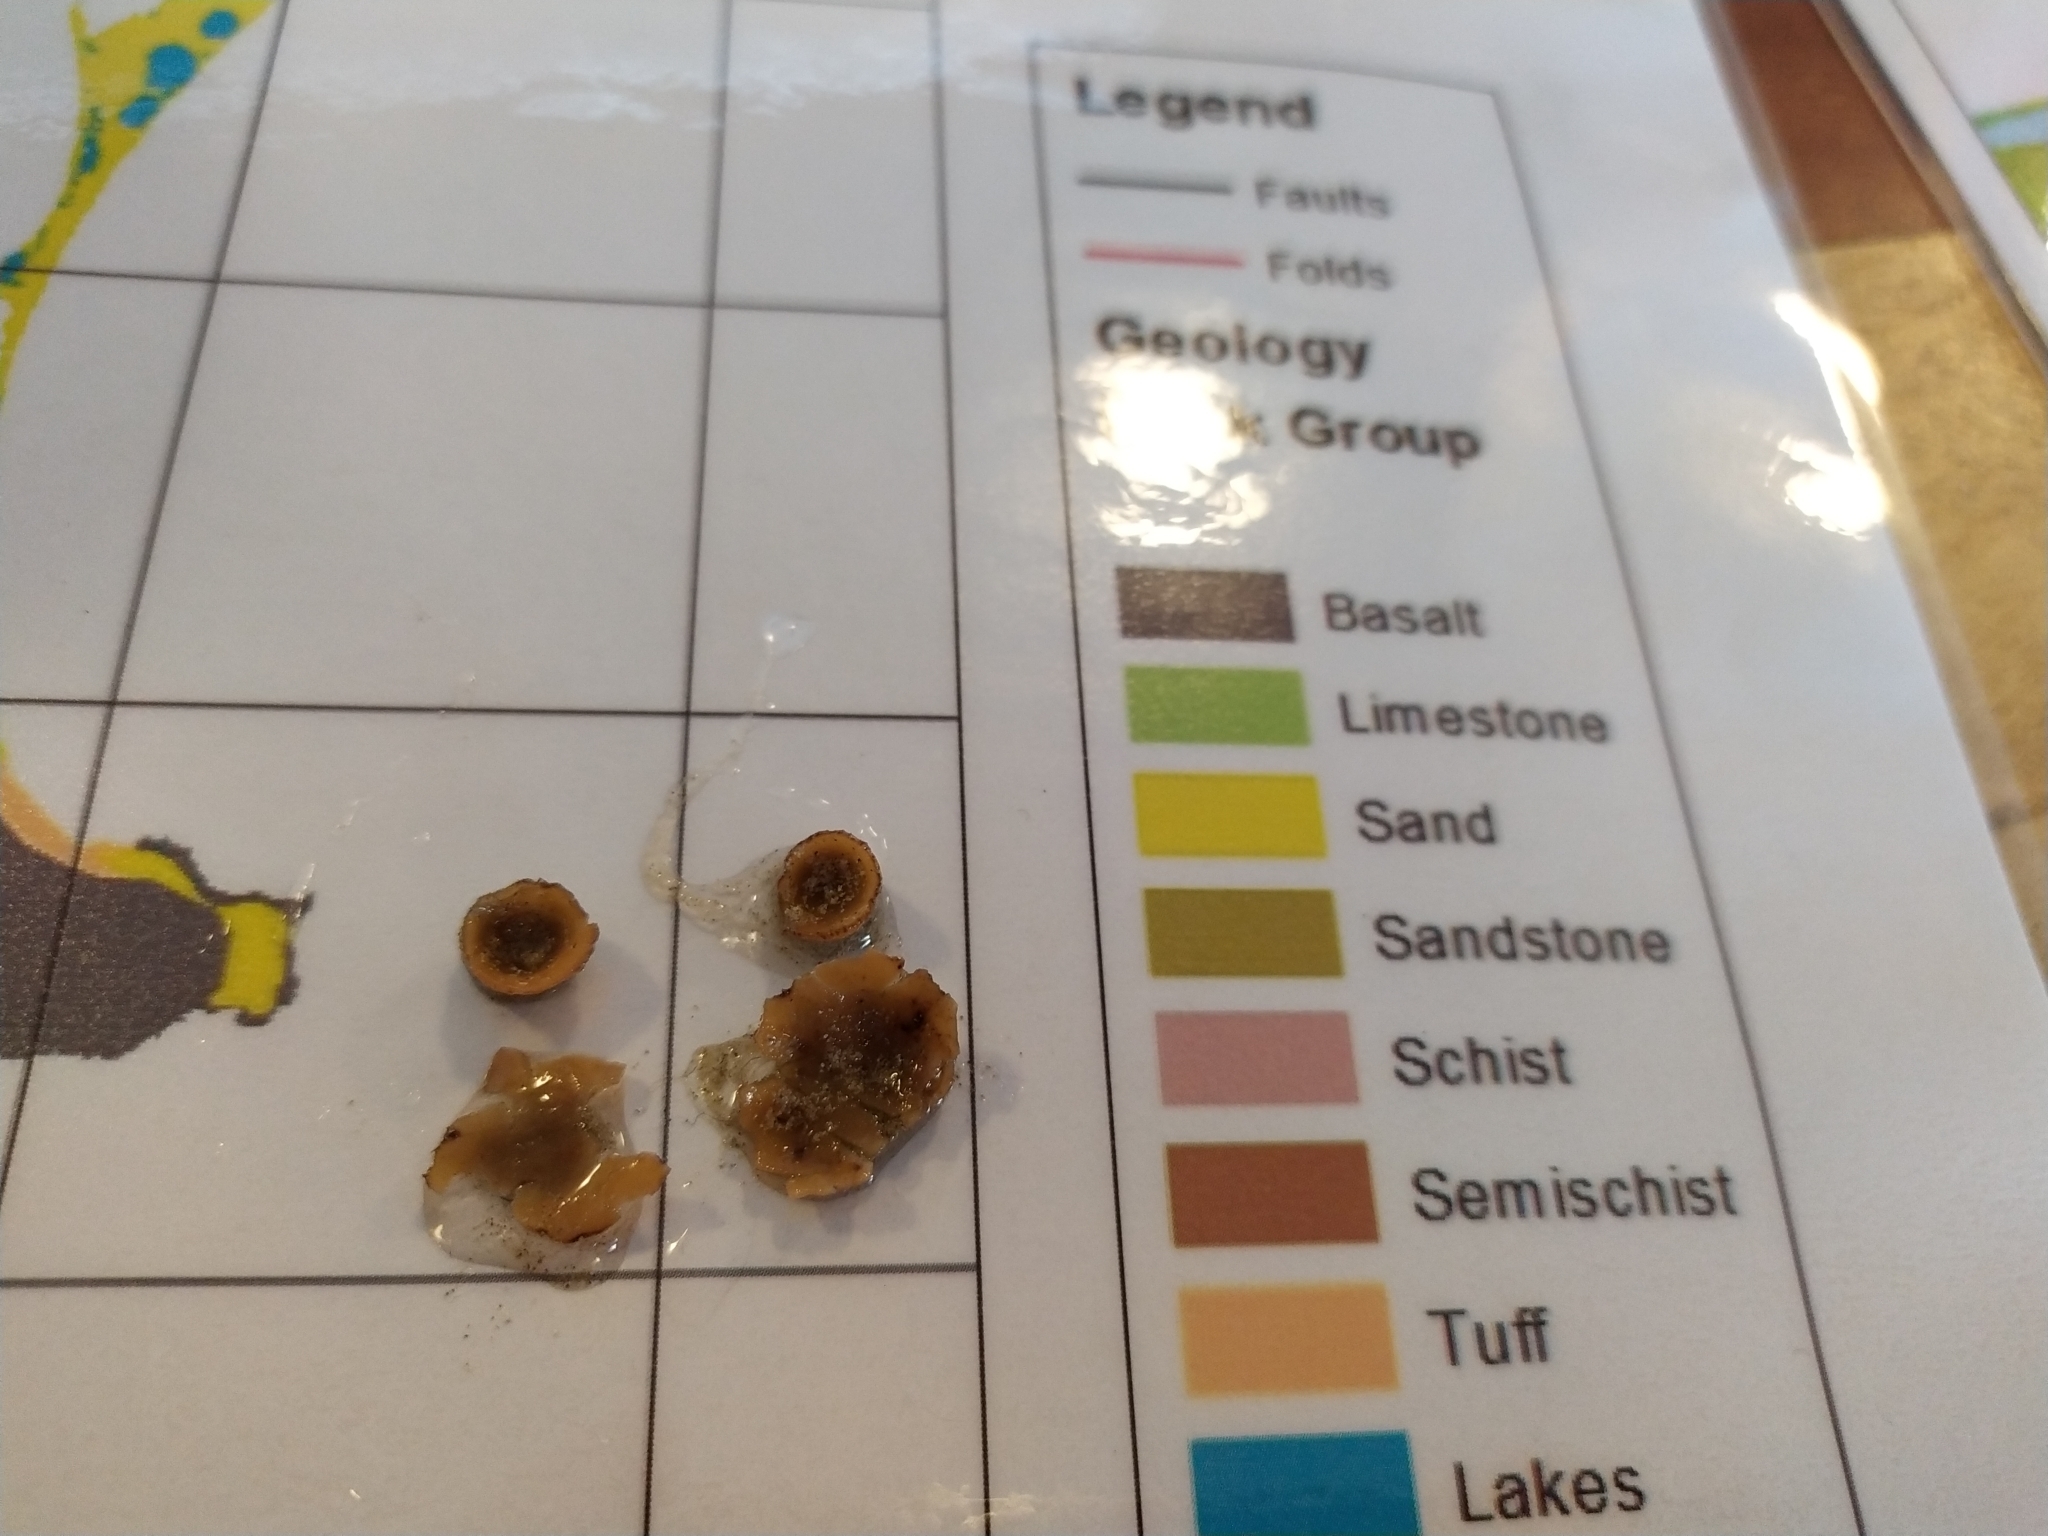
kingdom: Fungi
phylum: Ascomycota
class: Pezizomycetes
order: Pezizales
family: Pezizaceae
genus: Peziza
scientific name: Peziza oceanica
